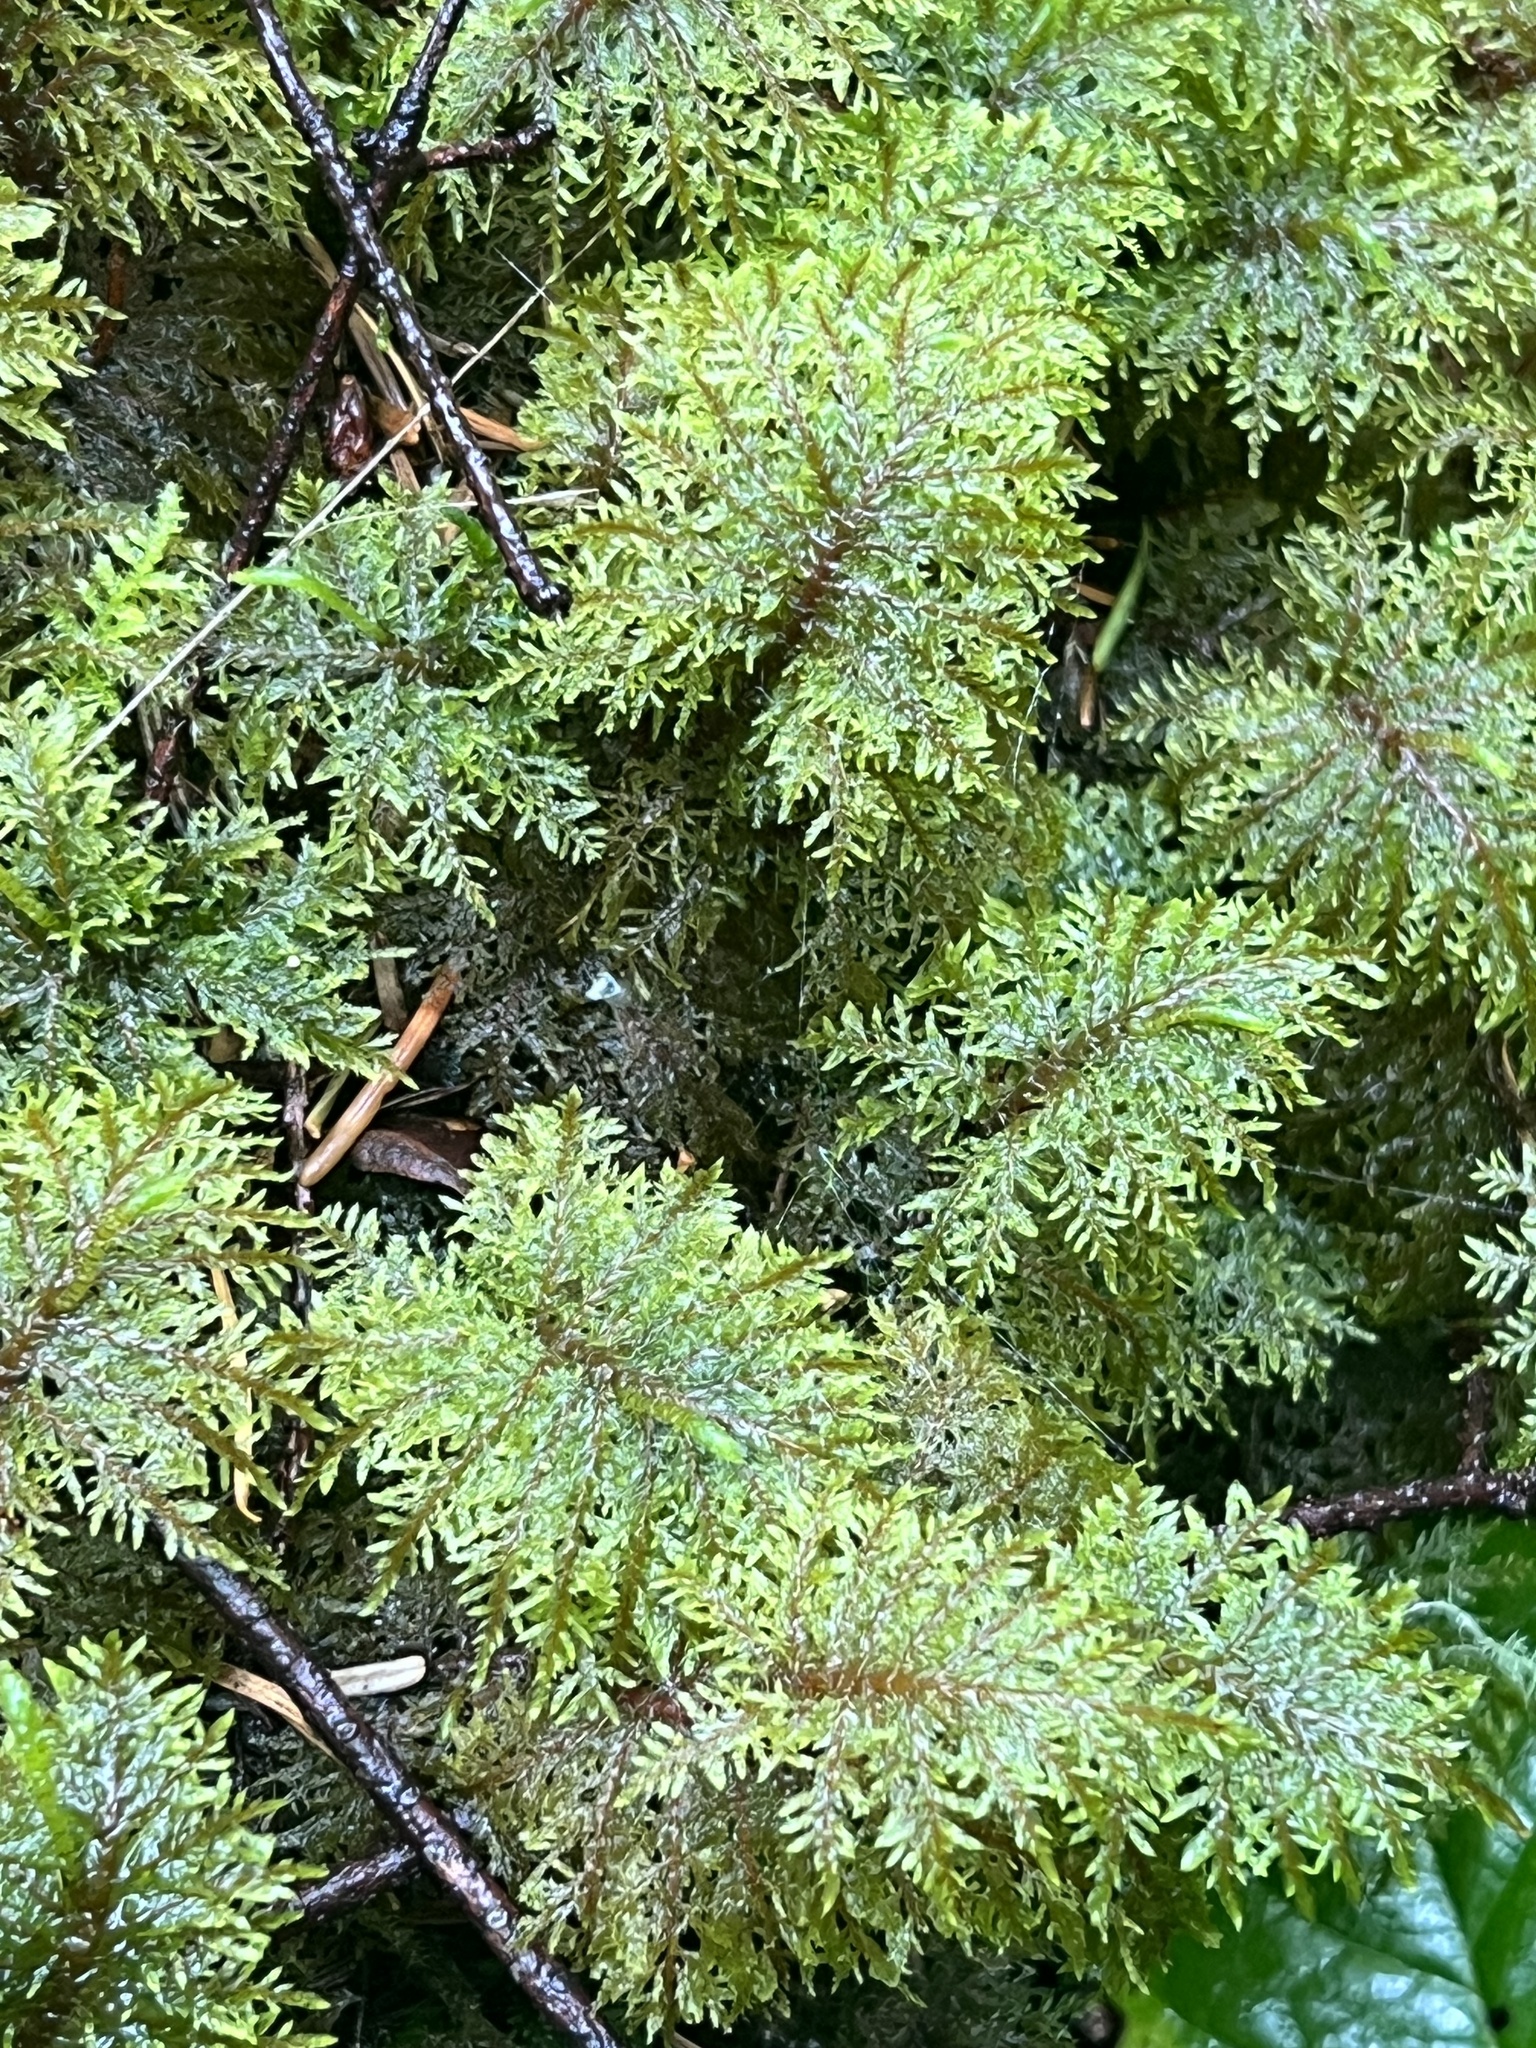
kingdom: Plantae
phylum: Bryophyta
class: Bryopsida
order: Hypnales
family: Hylocomiaceae
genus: Hylocomium
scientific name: Hylocomium splendens
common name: Stairstep moss
